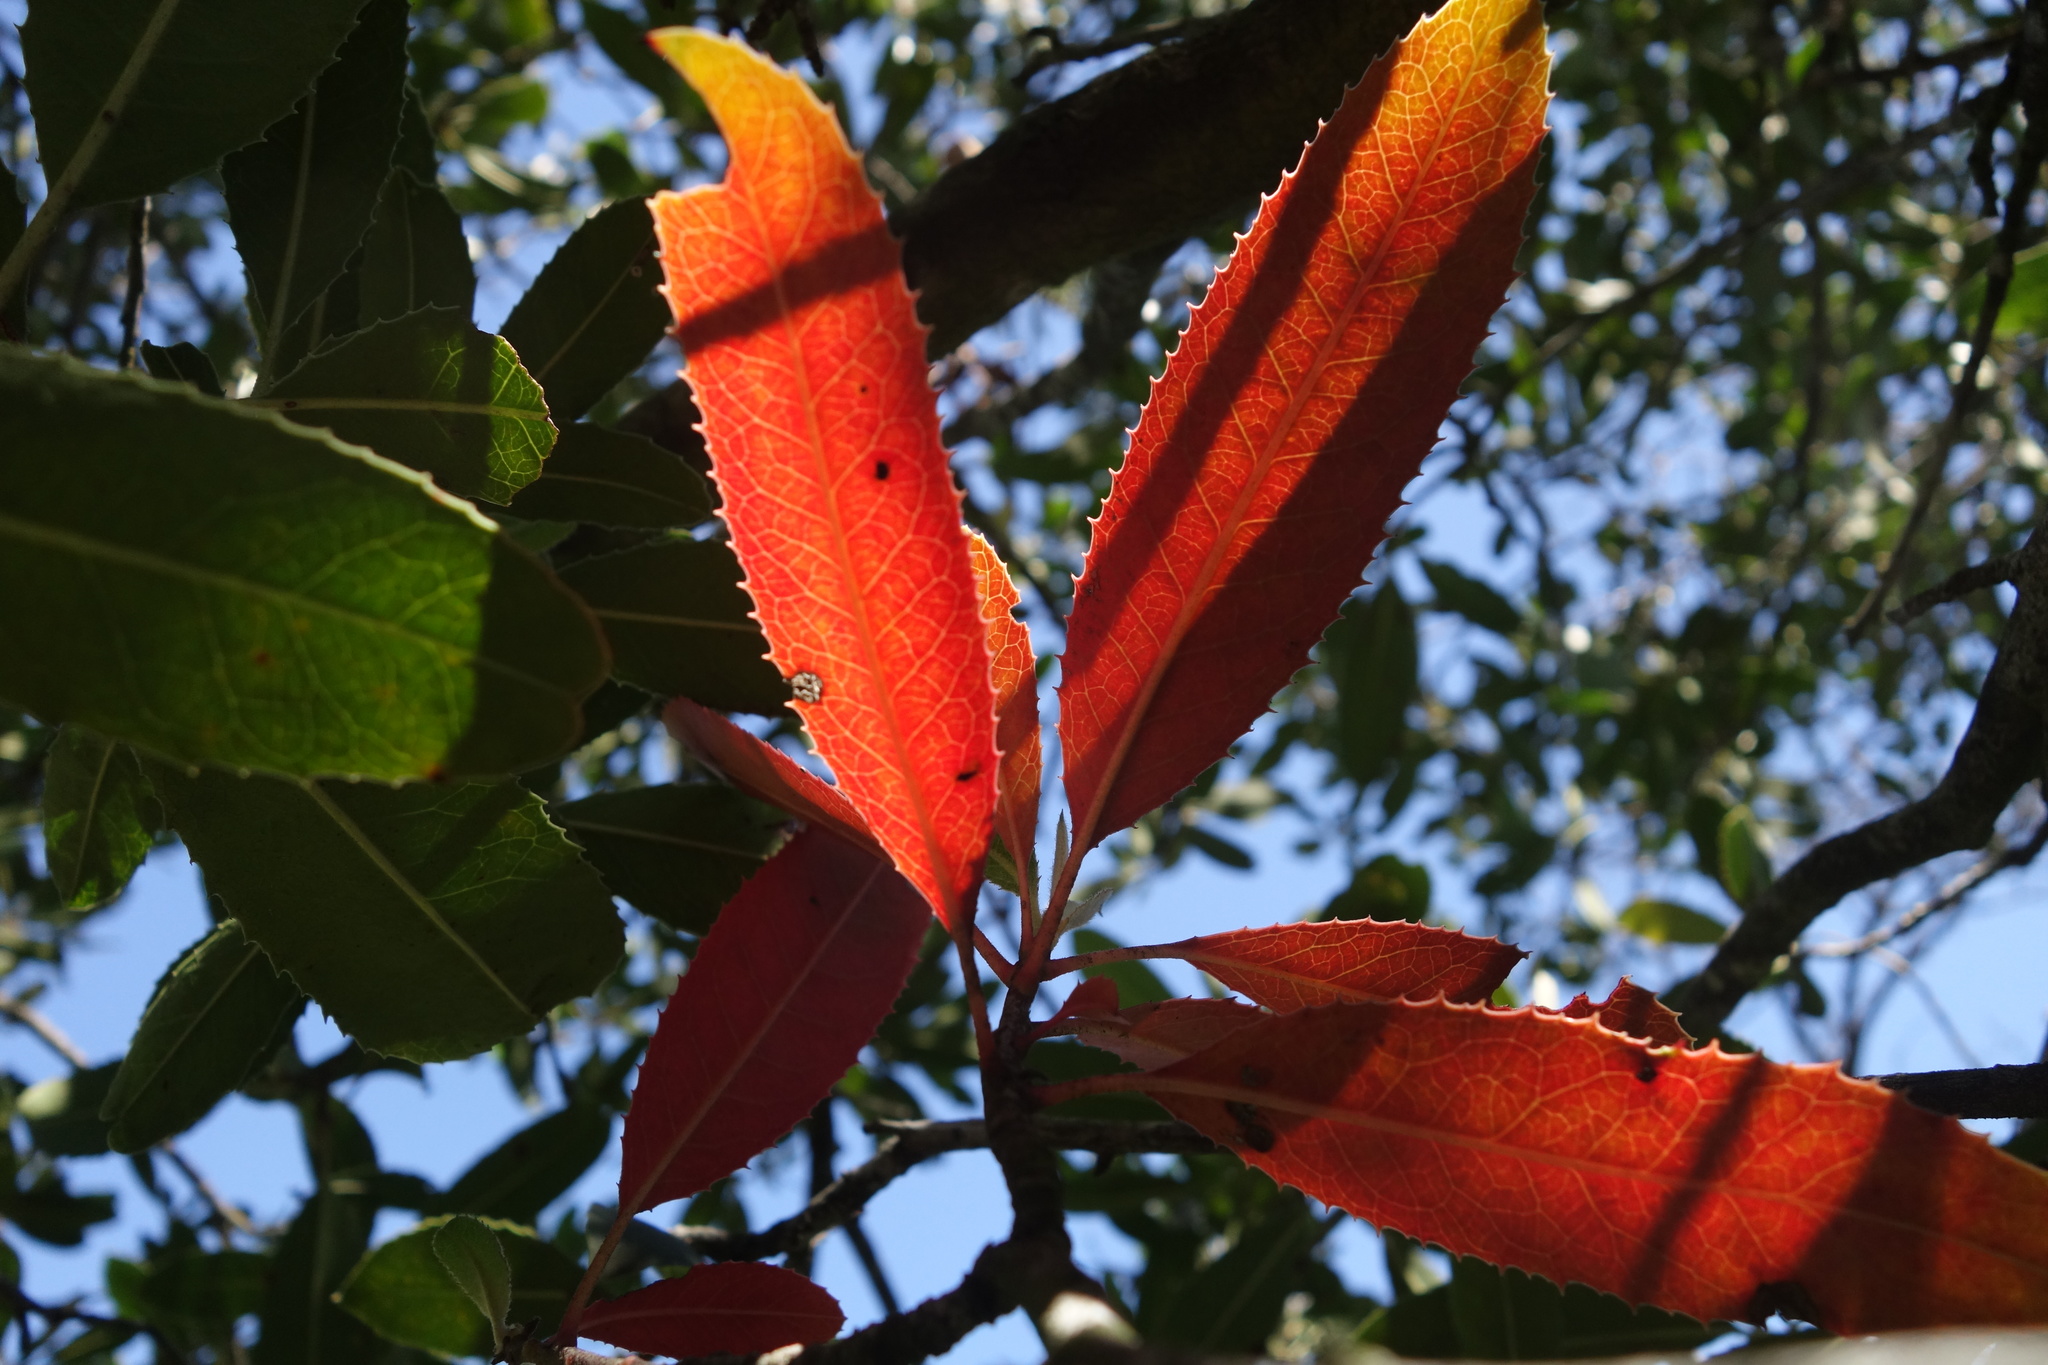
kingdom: Plantae
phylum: Tracheophyta
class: Magnoliopsida
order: Rosales
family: Rosaceae
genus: Heteromeles
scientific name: Heteromeles arbutifolia
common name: California-holly
